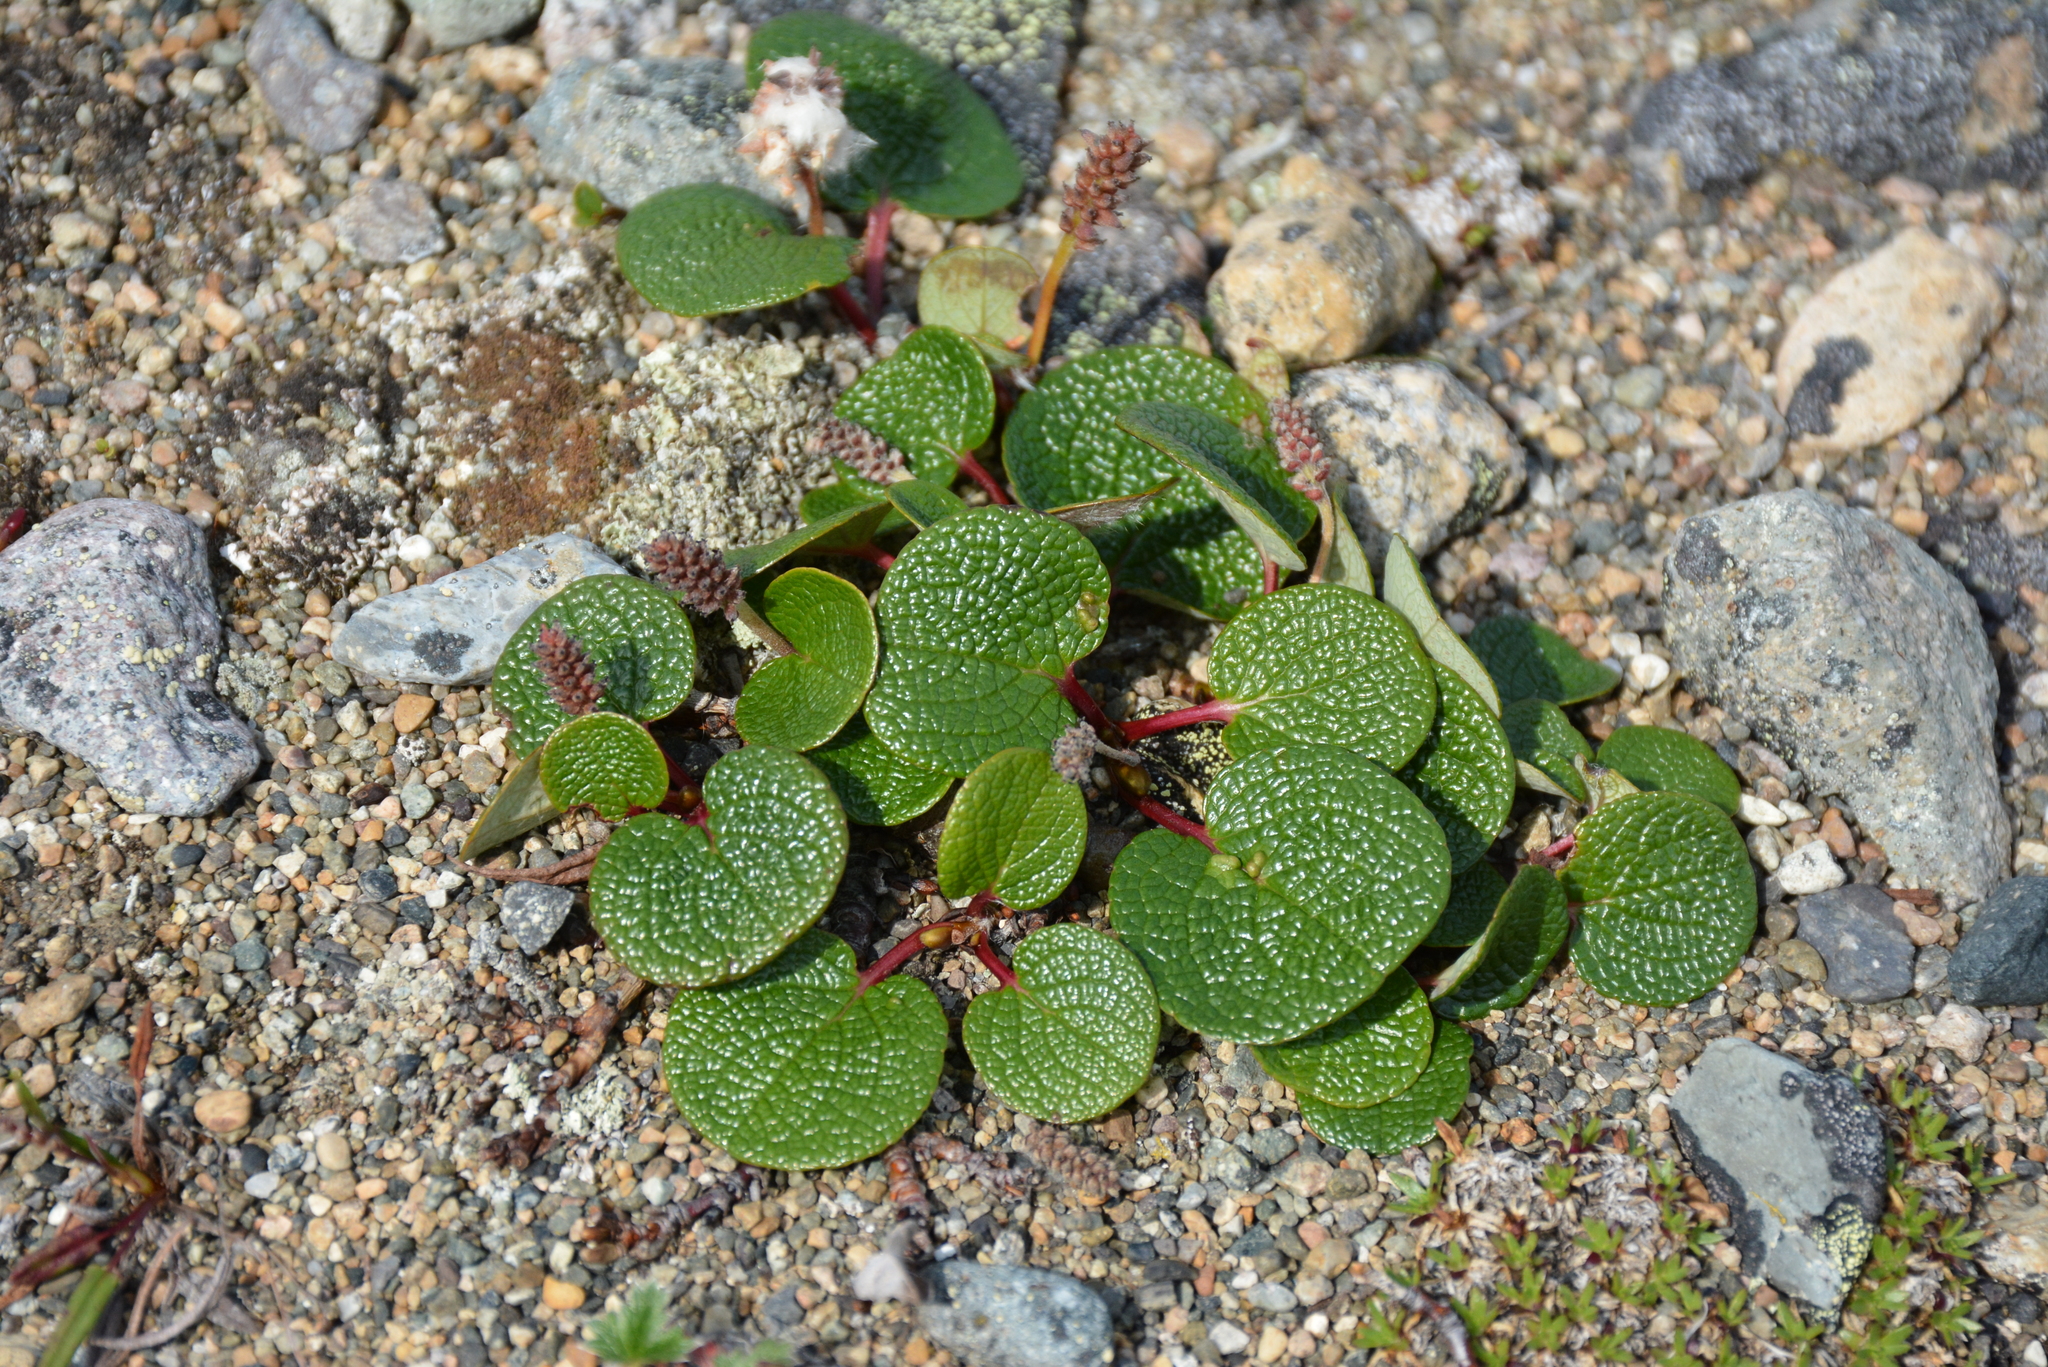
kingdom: Plantae
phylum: Tracheophyta
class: Magnoliopsida
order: Malpighiales
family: Salicaceae
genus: Salix
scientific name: Salix reticulata
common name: Net-leaved willow
